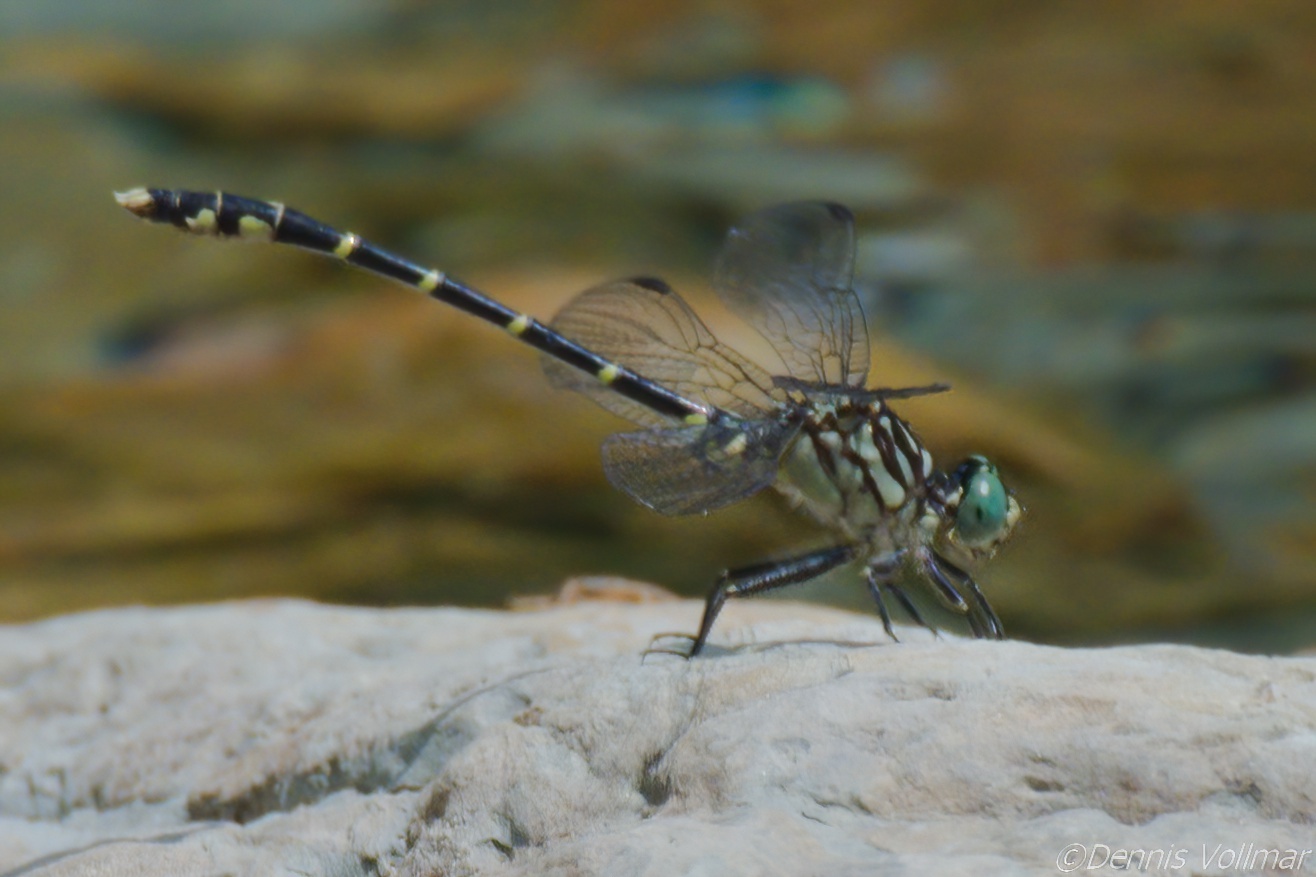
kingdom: Animalia
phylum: Arthropoda
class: Insecta
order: Odonata
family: Gomphidae
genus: Stylogomphus
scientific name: Stylogomphus albistylus
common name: Eastern least clubtail
